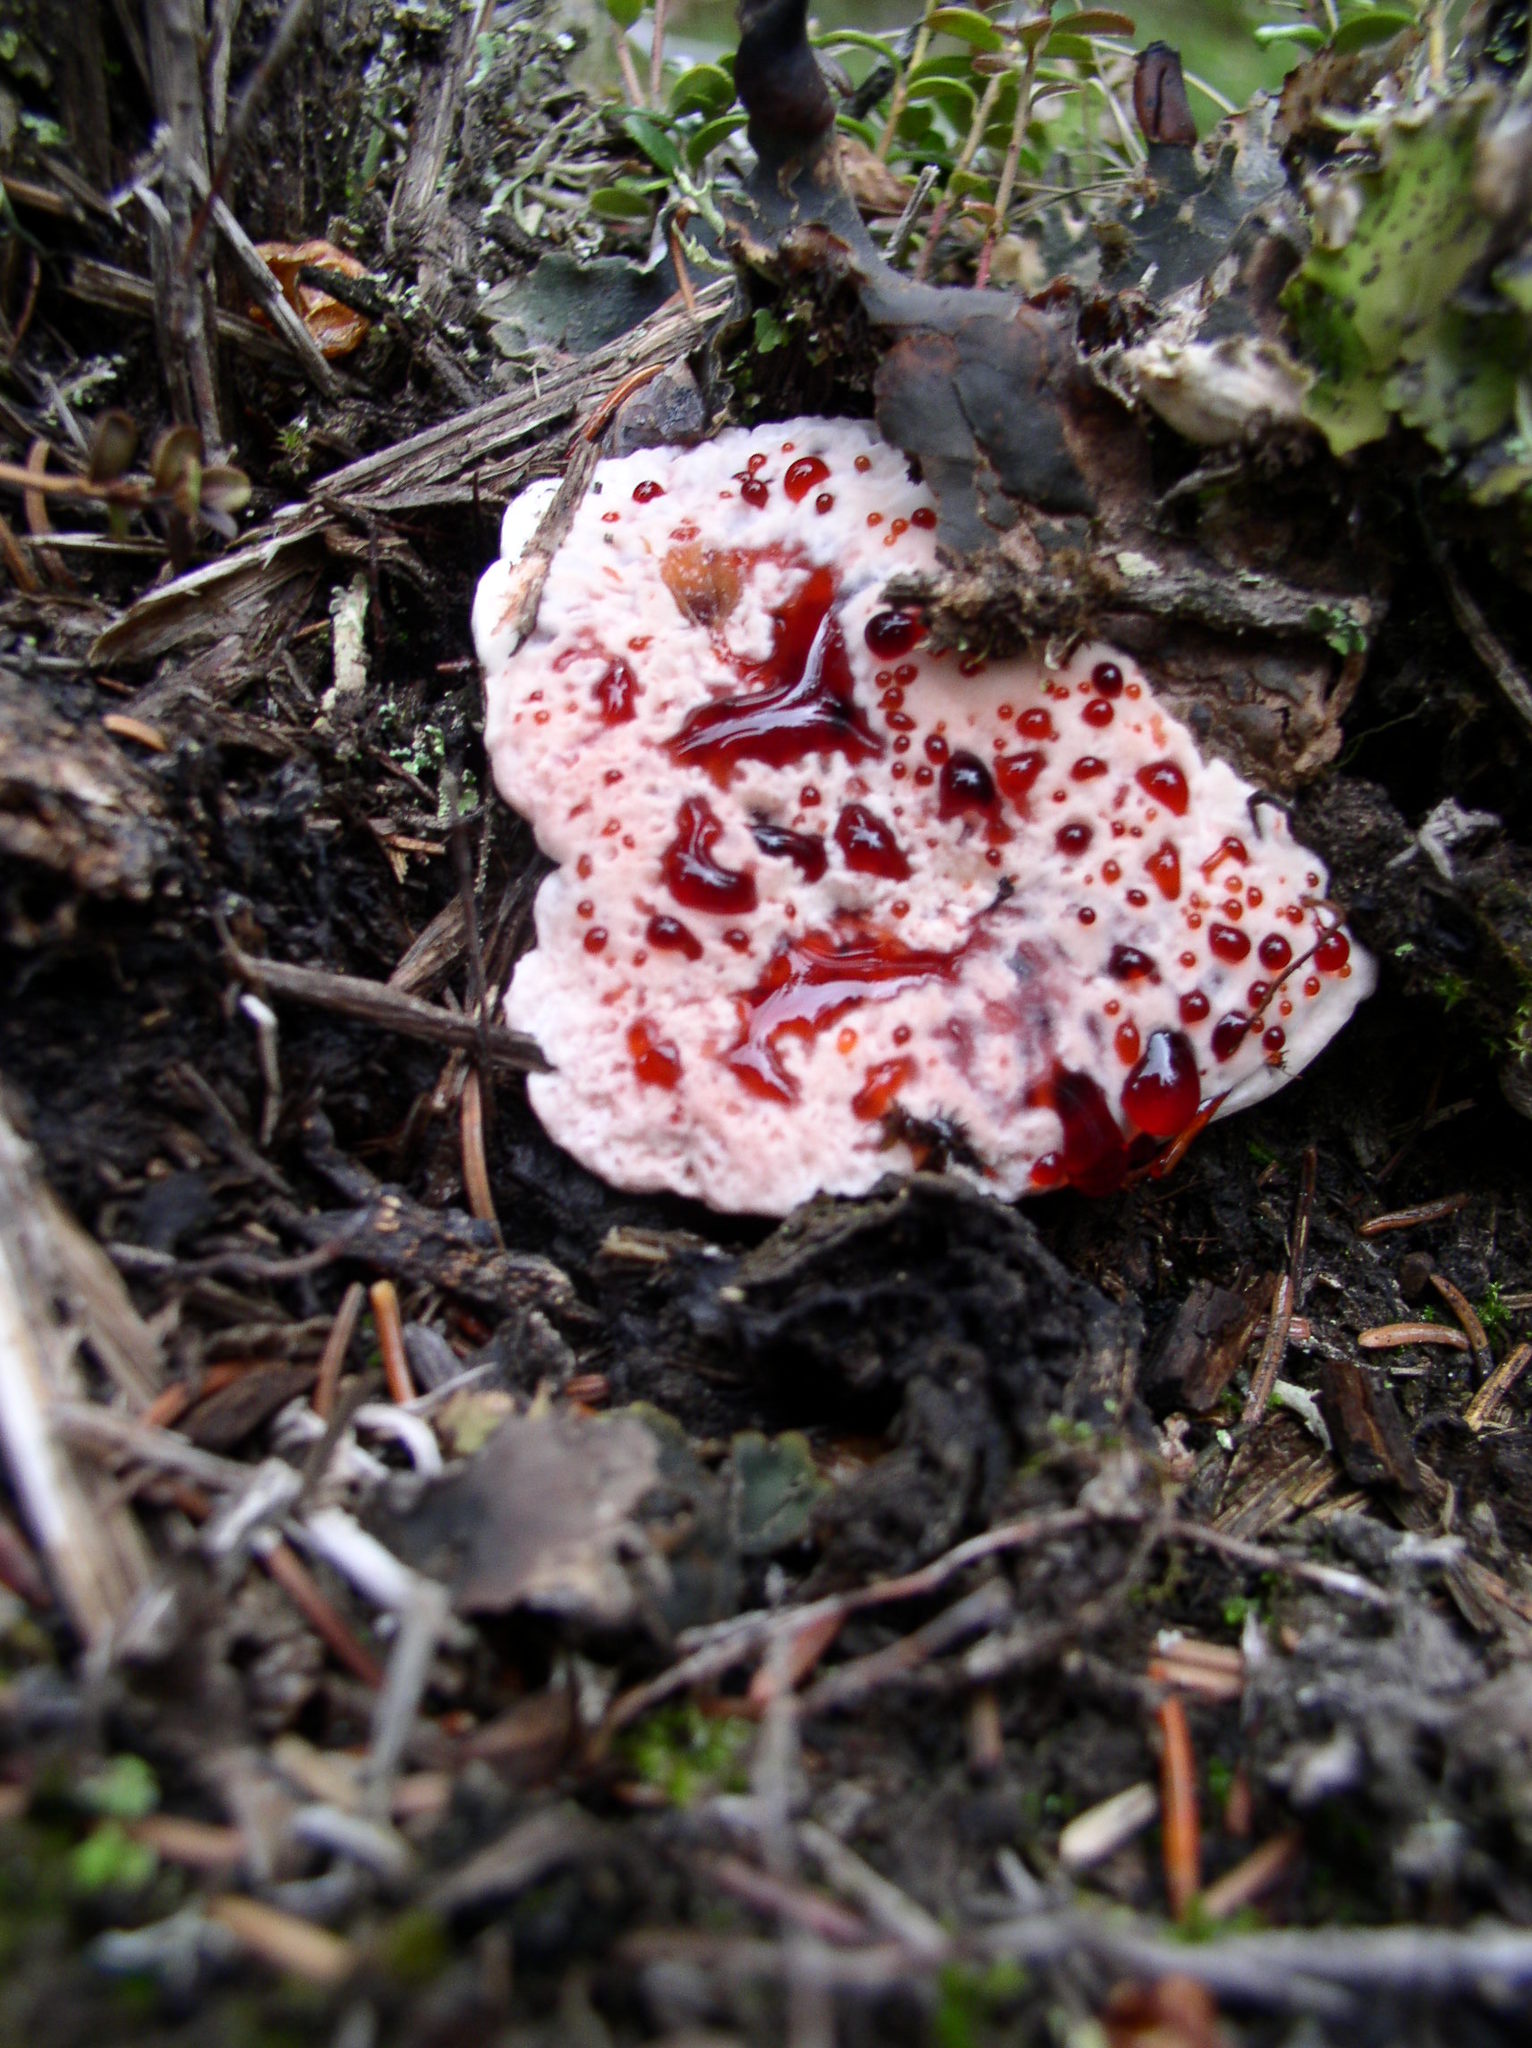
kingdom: Fungi
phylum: Basidiomycota
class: Agaricomycetes
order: Thelephorales
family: Bankeraceae
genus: Hydnellum
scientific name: Hydnellum peckii
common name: Devil's tooth
